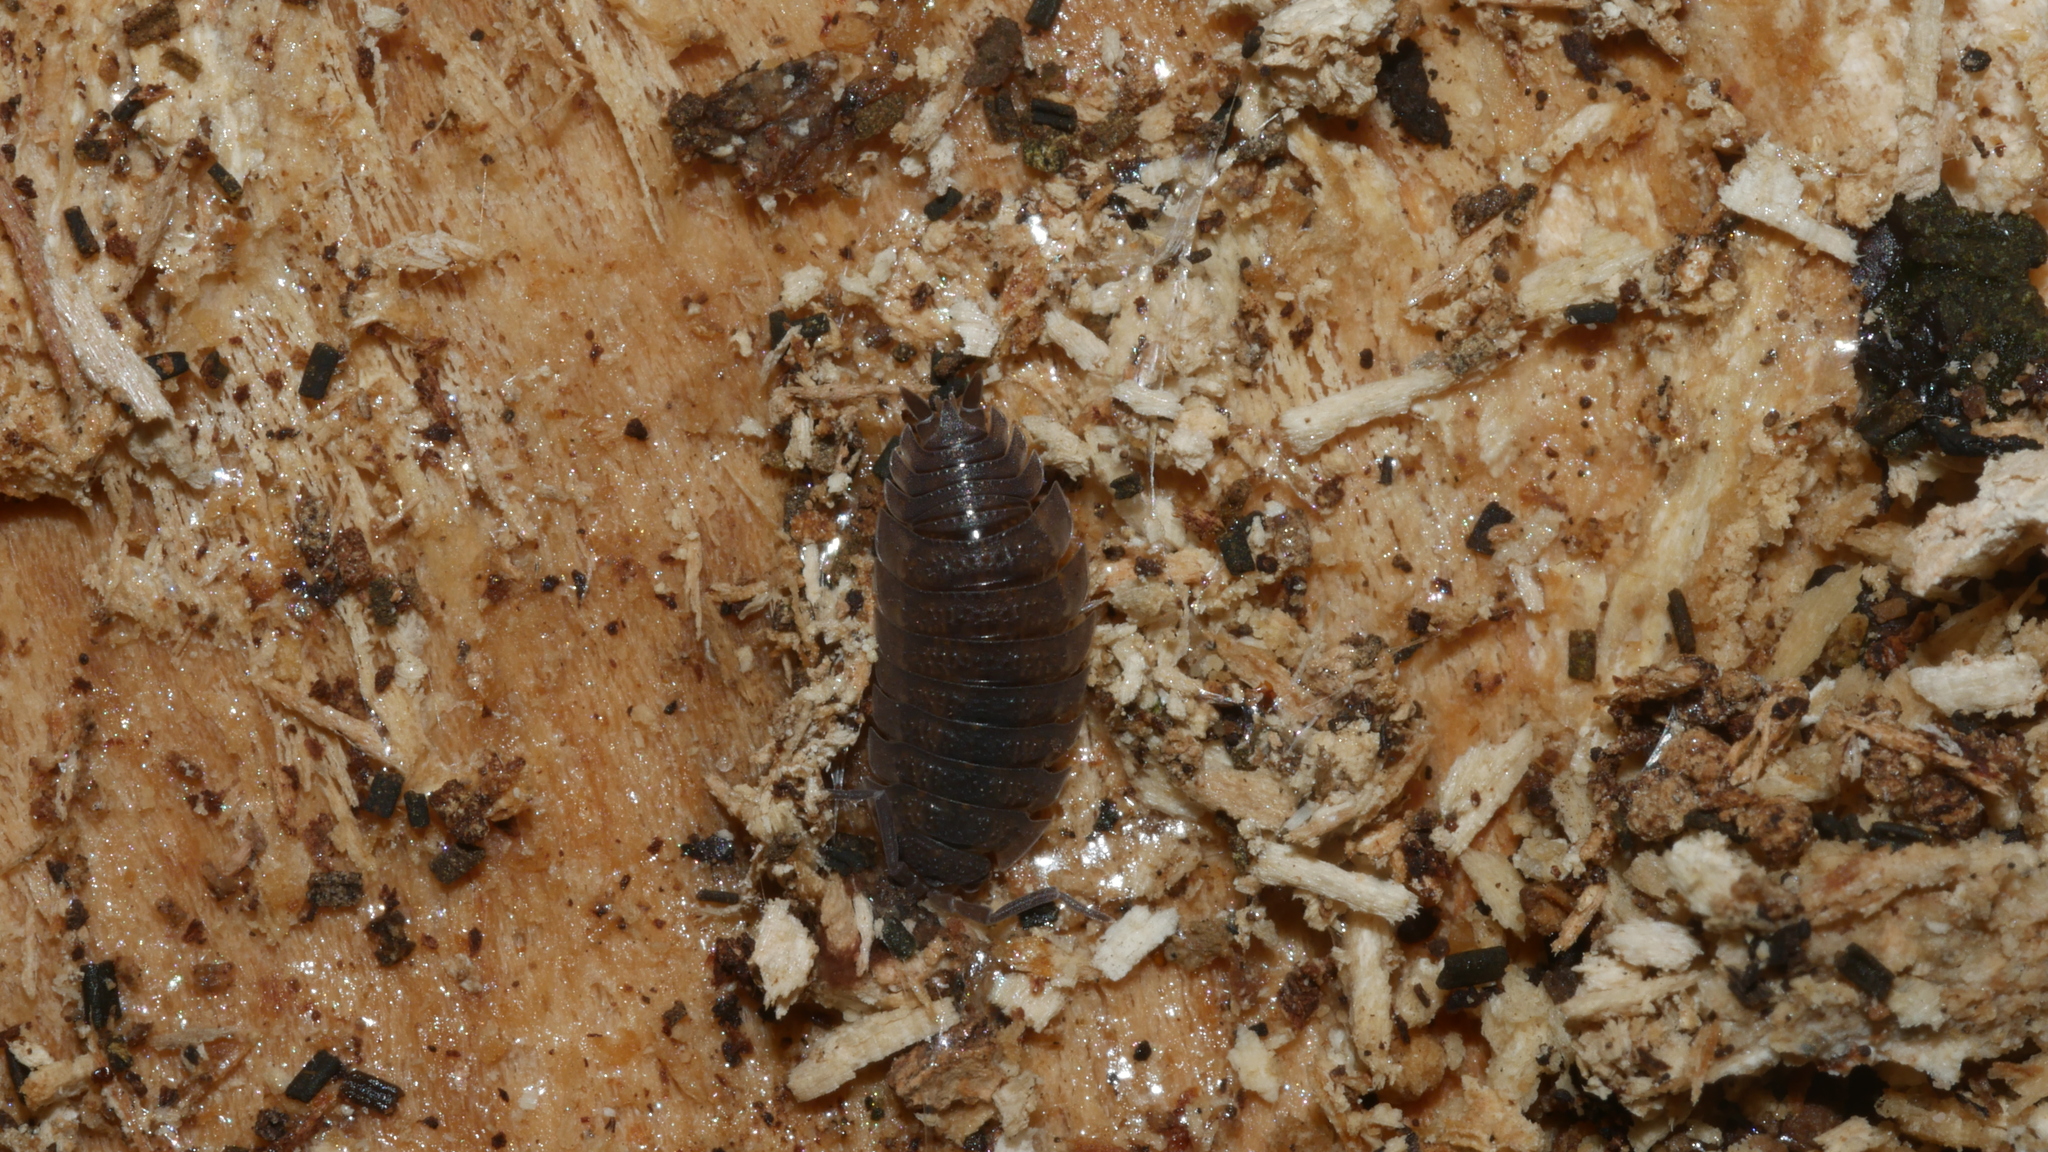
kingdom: Animalia
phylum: Arthropoda
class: Malacostraca
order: Isopoda
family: Porcellionidae
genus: Porcellio
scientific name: Porcellio scaber
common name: Common rough woodlouse
